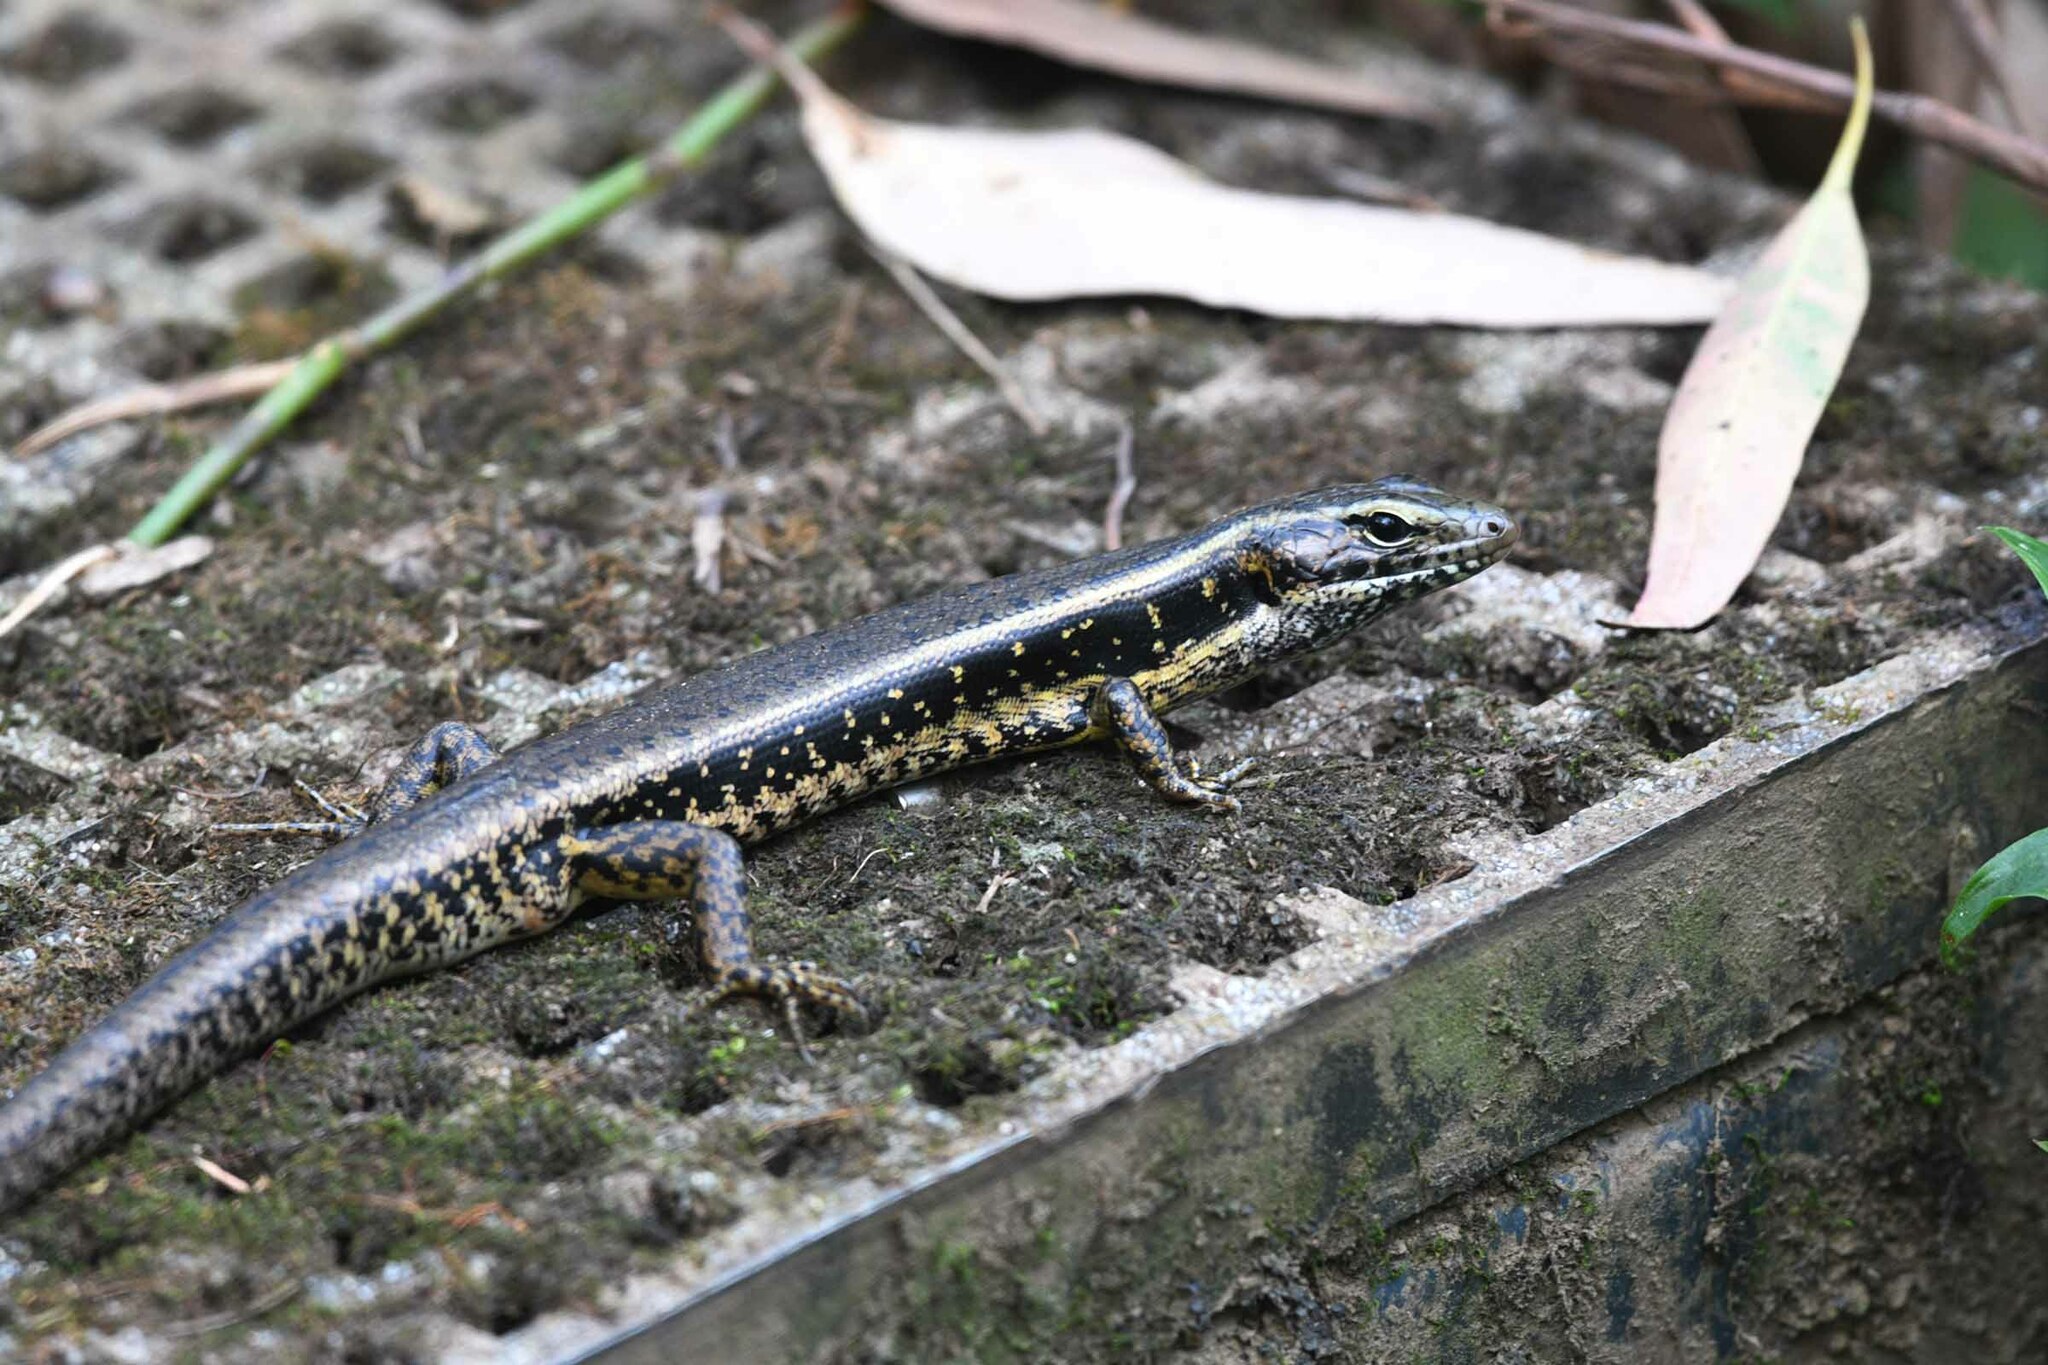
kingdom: Animalia
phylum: Chordata
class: Squamata
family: Scincidae
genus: Eulamprus
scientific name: Eulamprus quoyii
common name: Eastern water skink
